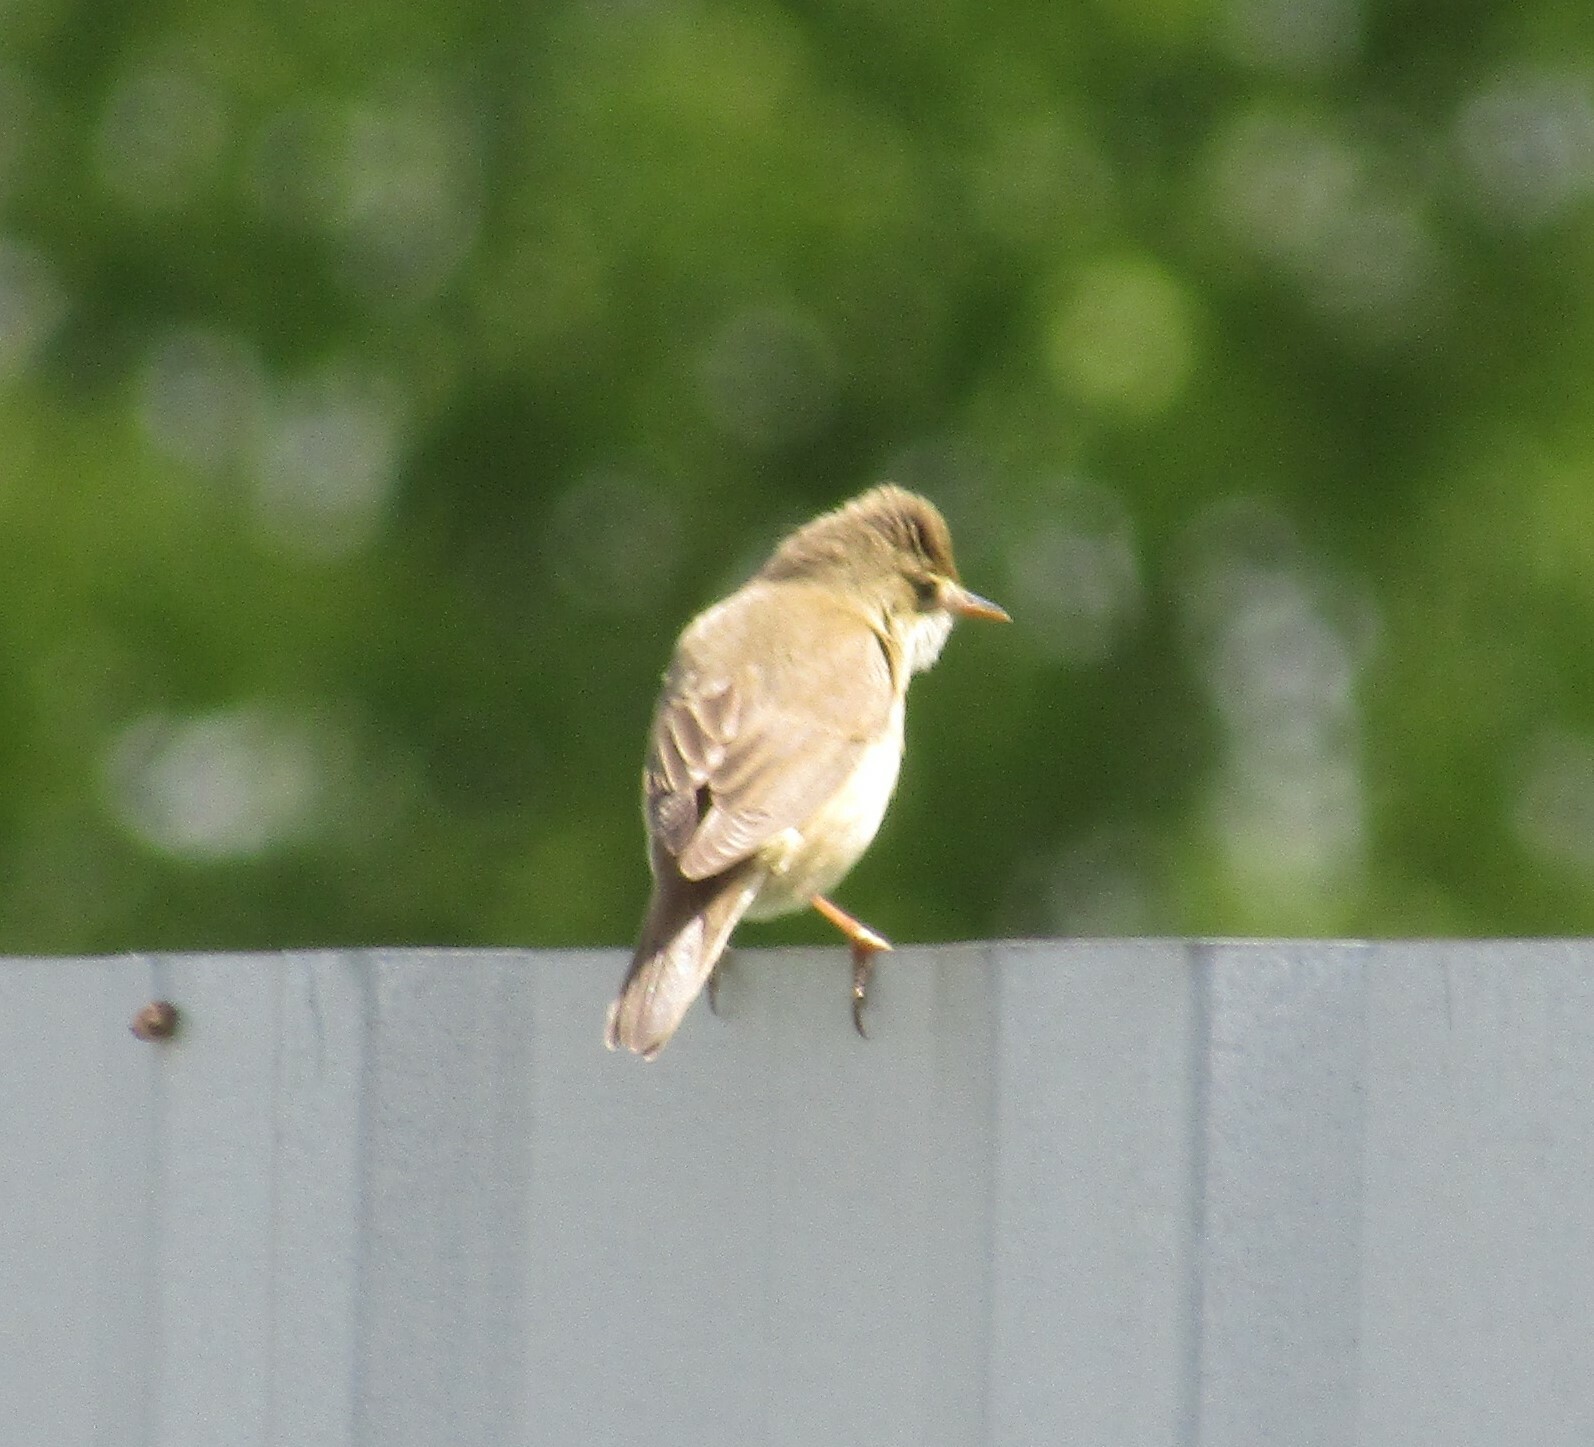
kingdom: Animalia
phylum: Chordata
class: Aves
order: Passeriformes
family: Acrocephalidae
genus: Acrocephalus
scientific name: Acrocephalus palustris
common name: Marsh warbler
